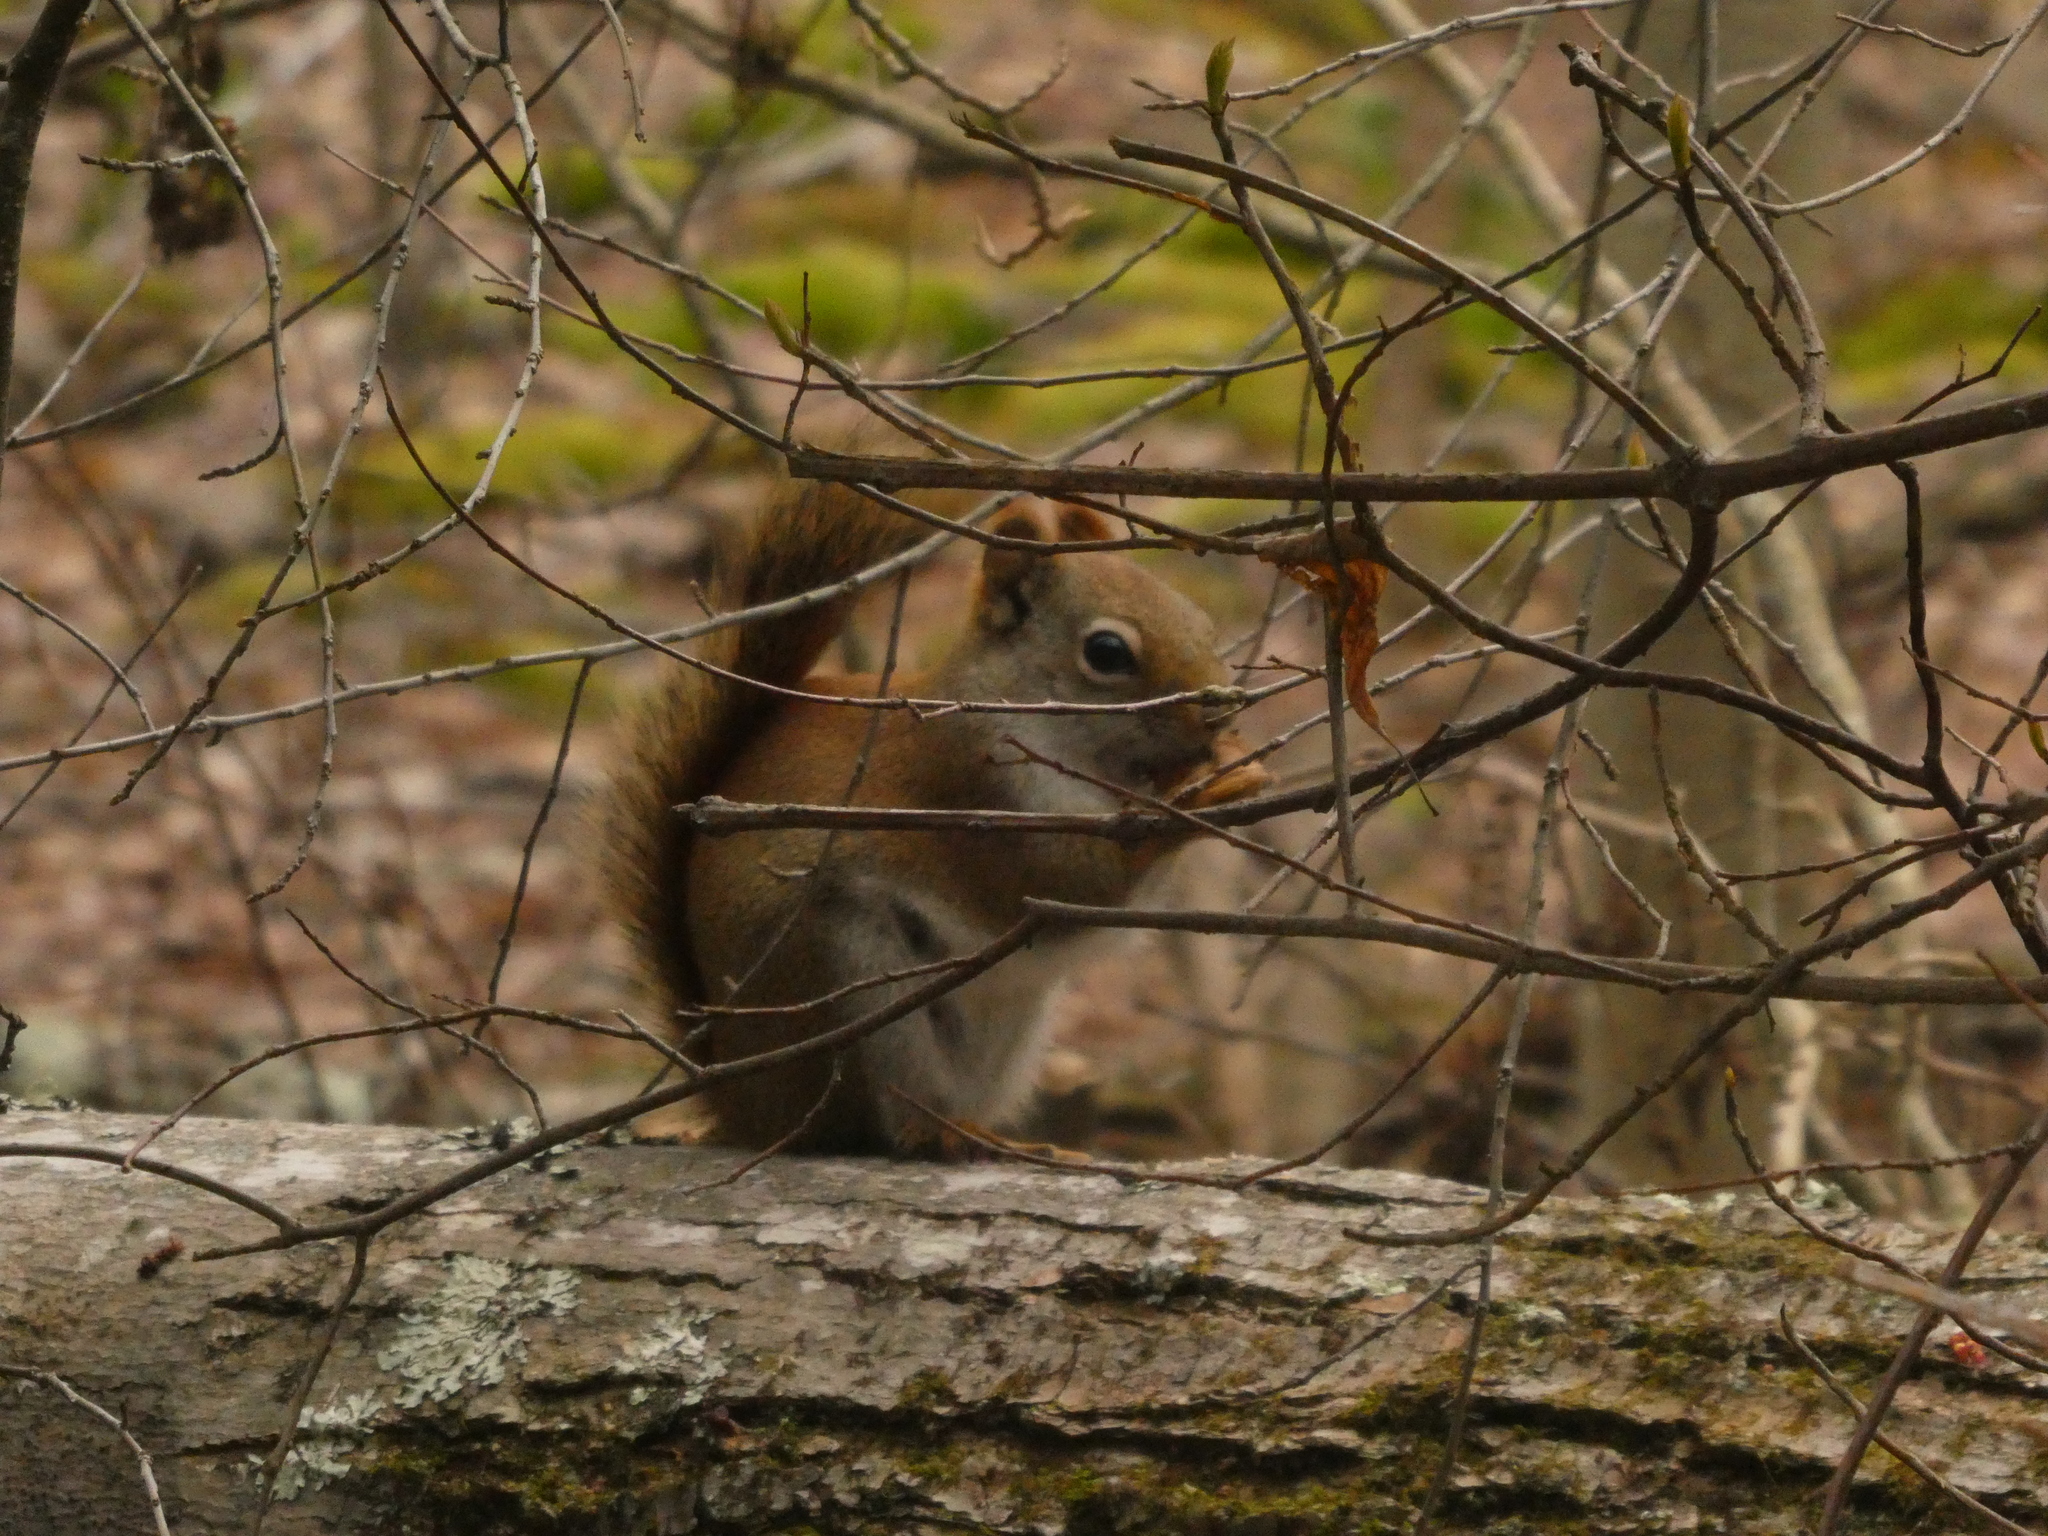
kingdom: Animalia
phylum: Chordata
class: Mammalia
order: Rodentia
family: Sciuridae
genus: Tamiasciurus
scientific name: Tamiasciurus hudsonicus
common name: Red squirrel
